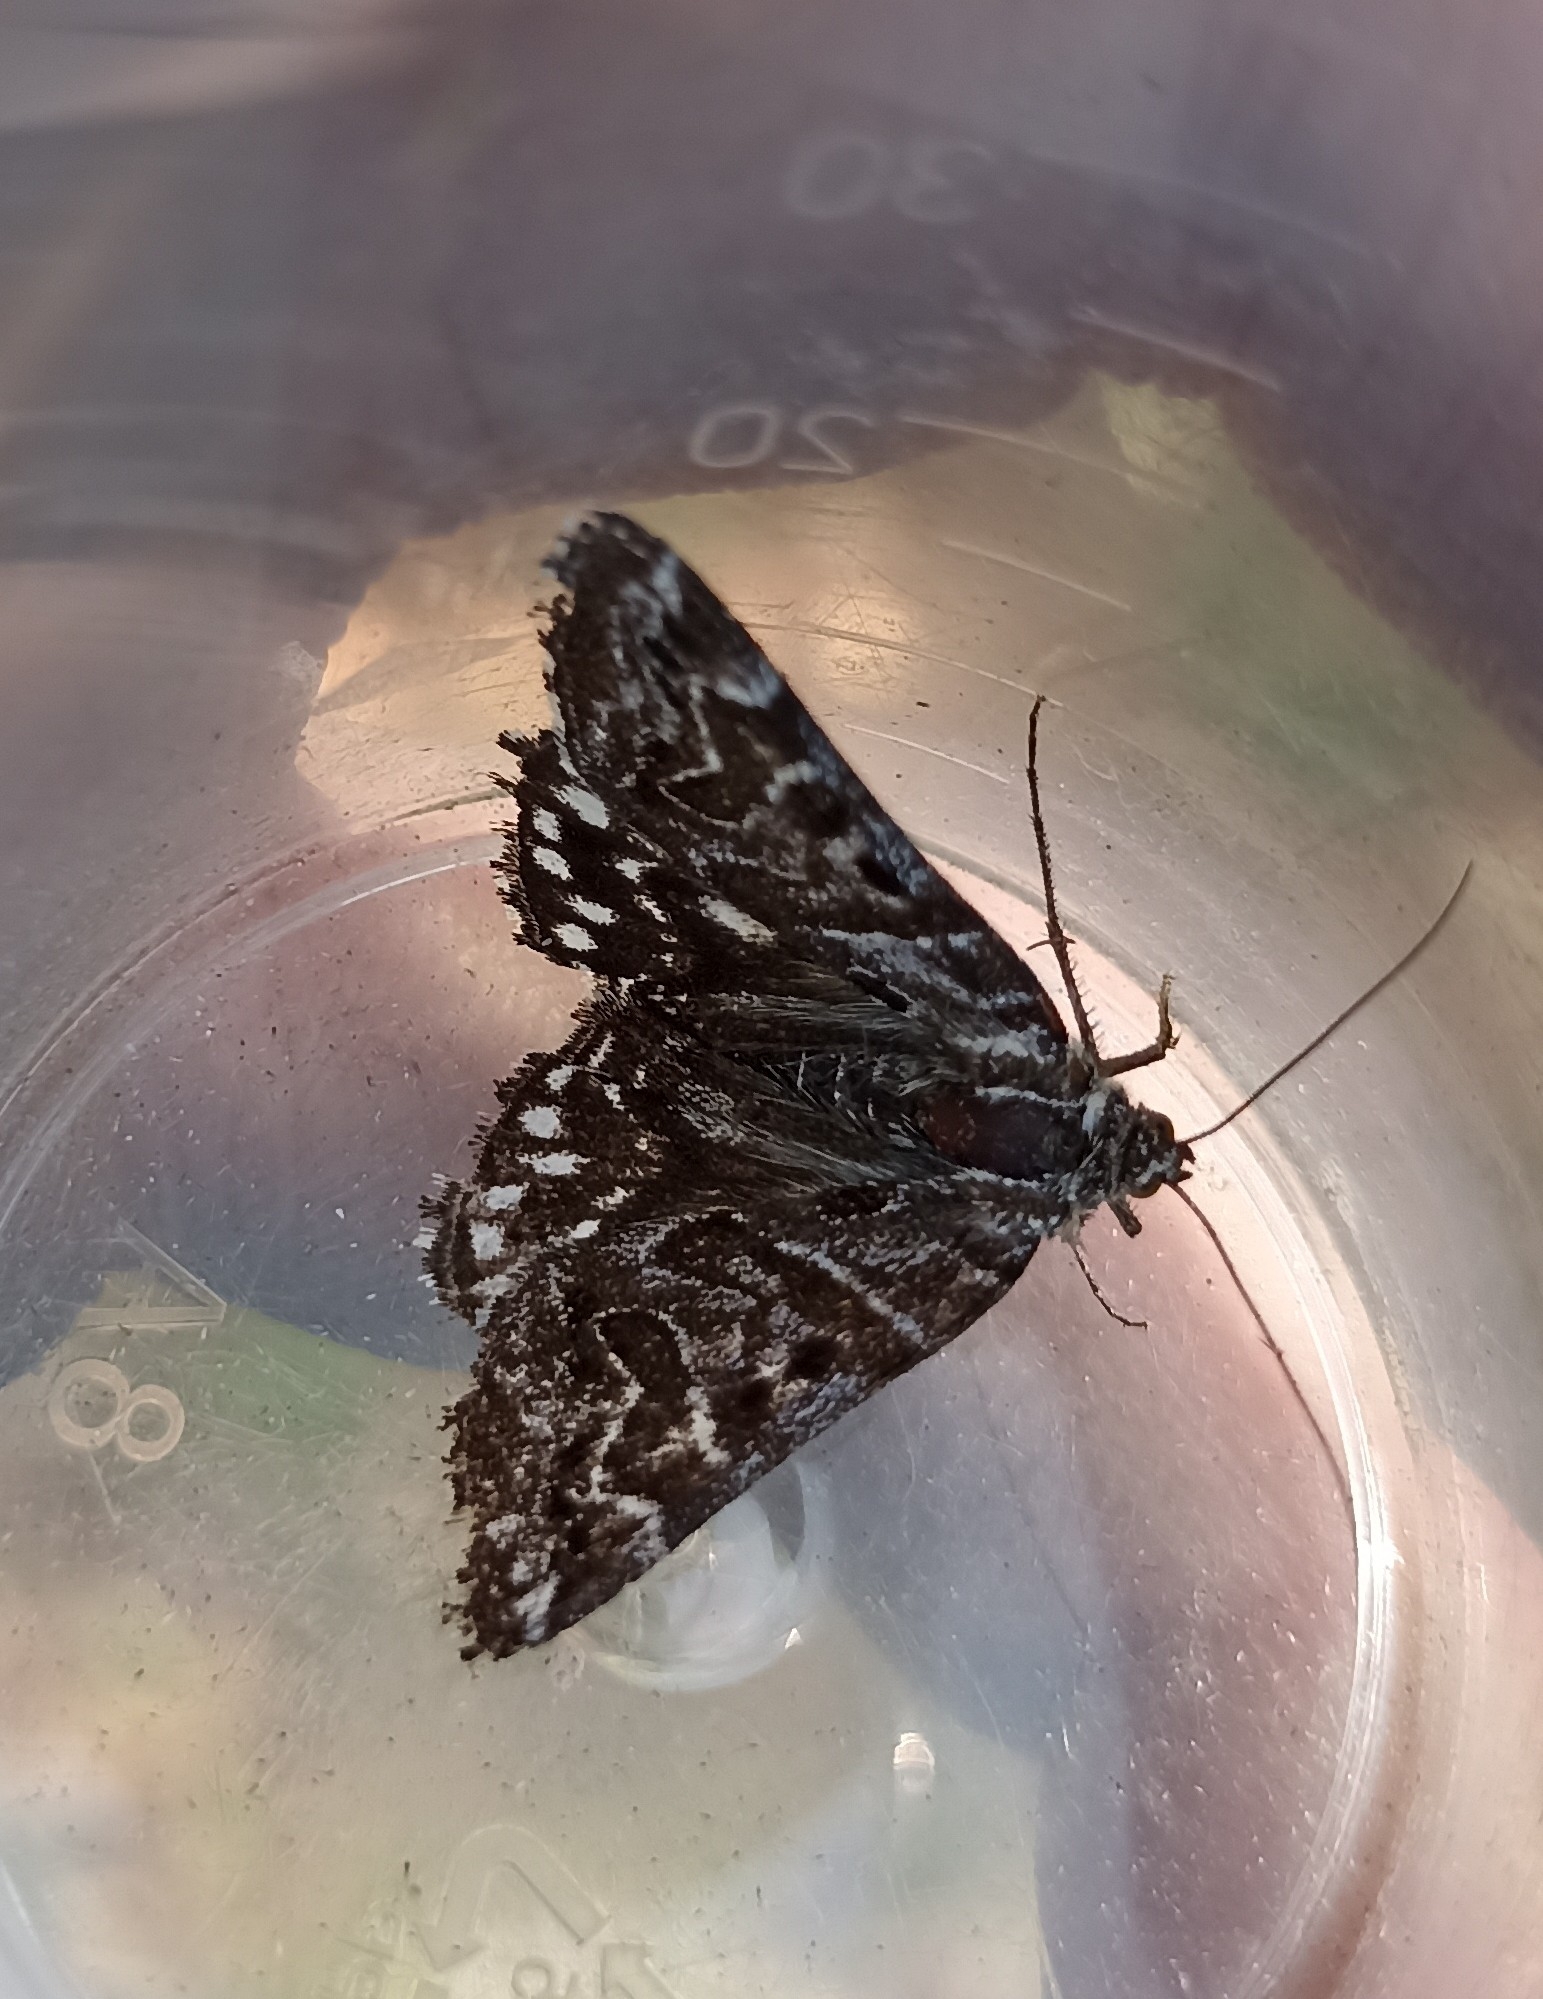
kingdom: Animalia
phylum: Arthropoda
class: Insecta
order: Lepidoptera
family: Erebidae
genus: Callistege
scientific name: Callistege mi
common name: Mother shipton
